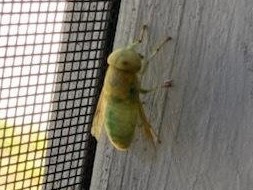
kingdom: Animalia
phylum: Arthropoda
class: Insecta
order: Diptera
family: Tabanidae
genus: Chlorotabanus
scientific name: Chlorotabanus crepuscularis
